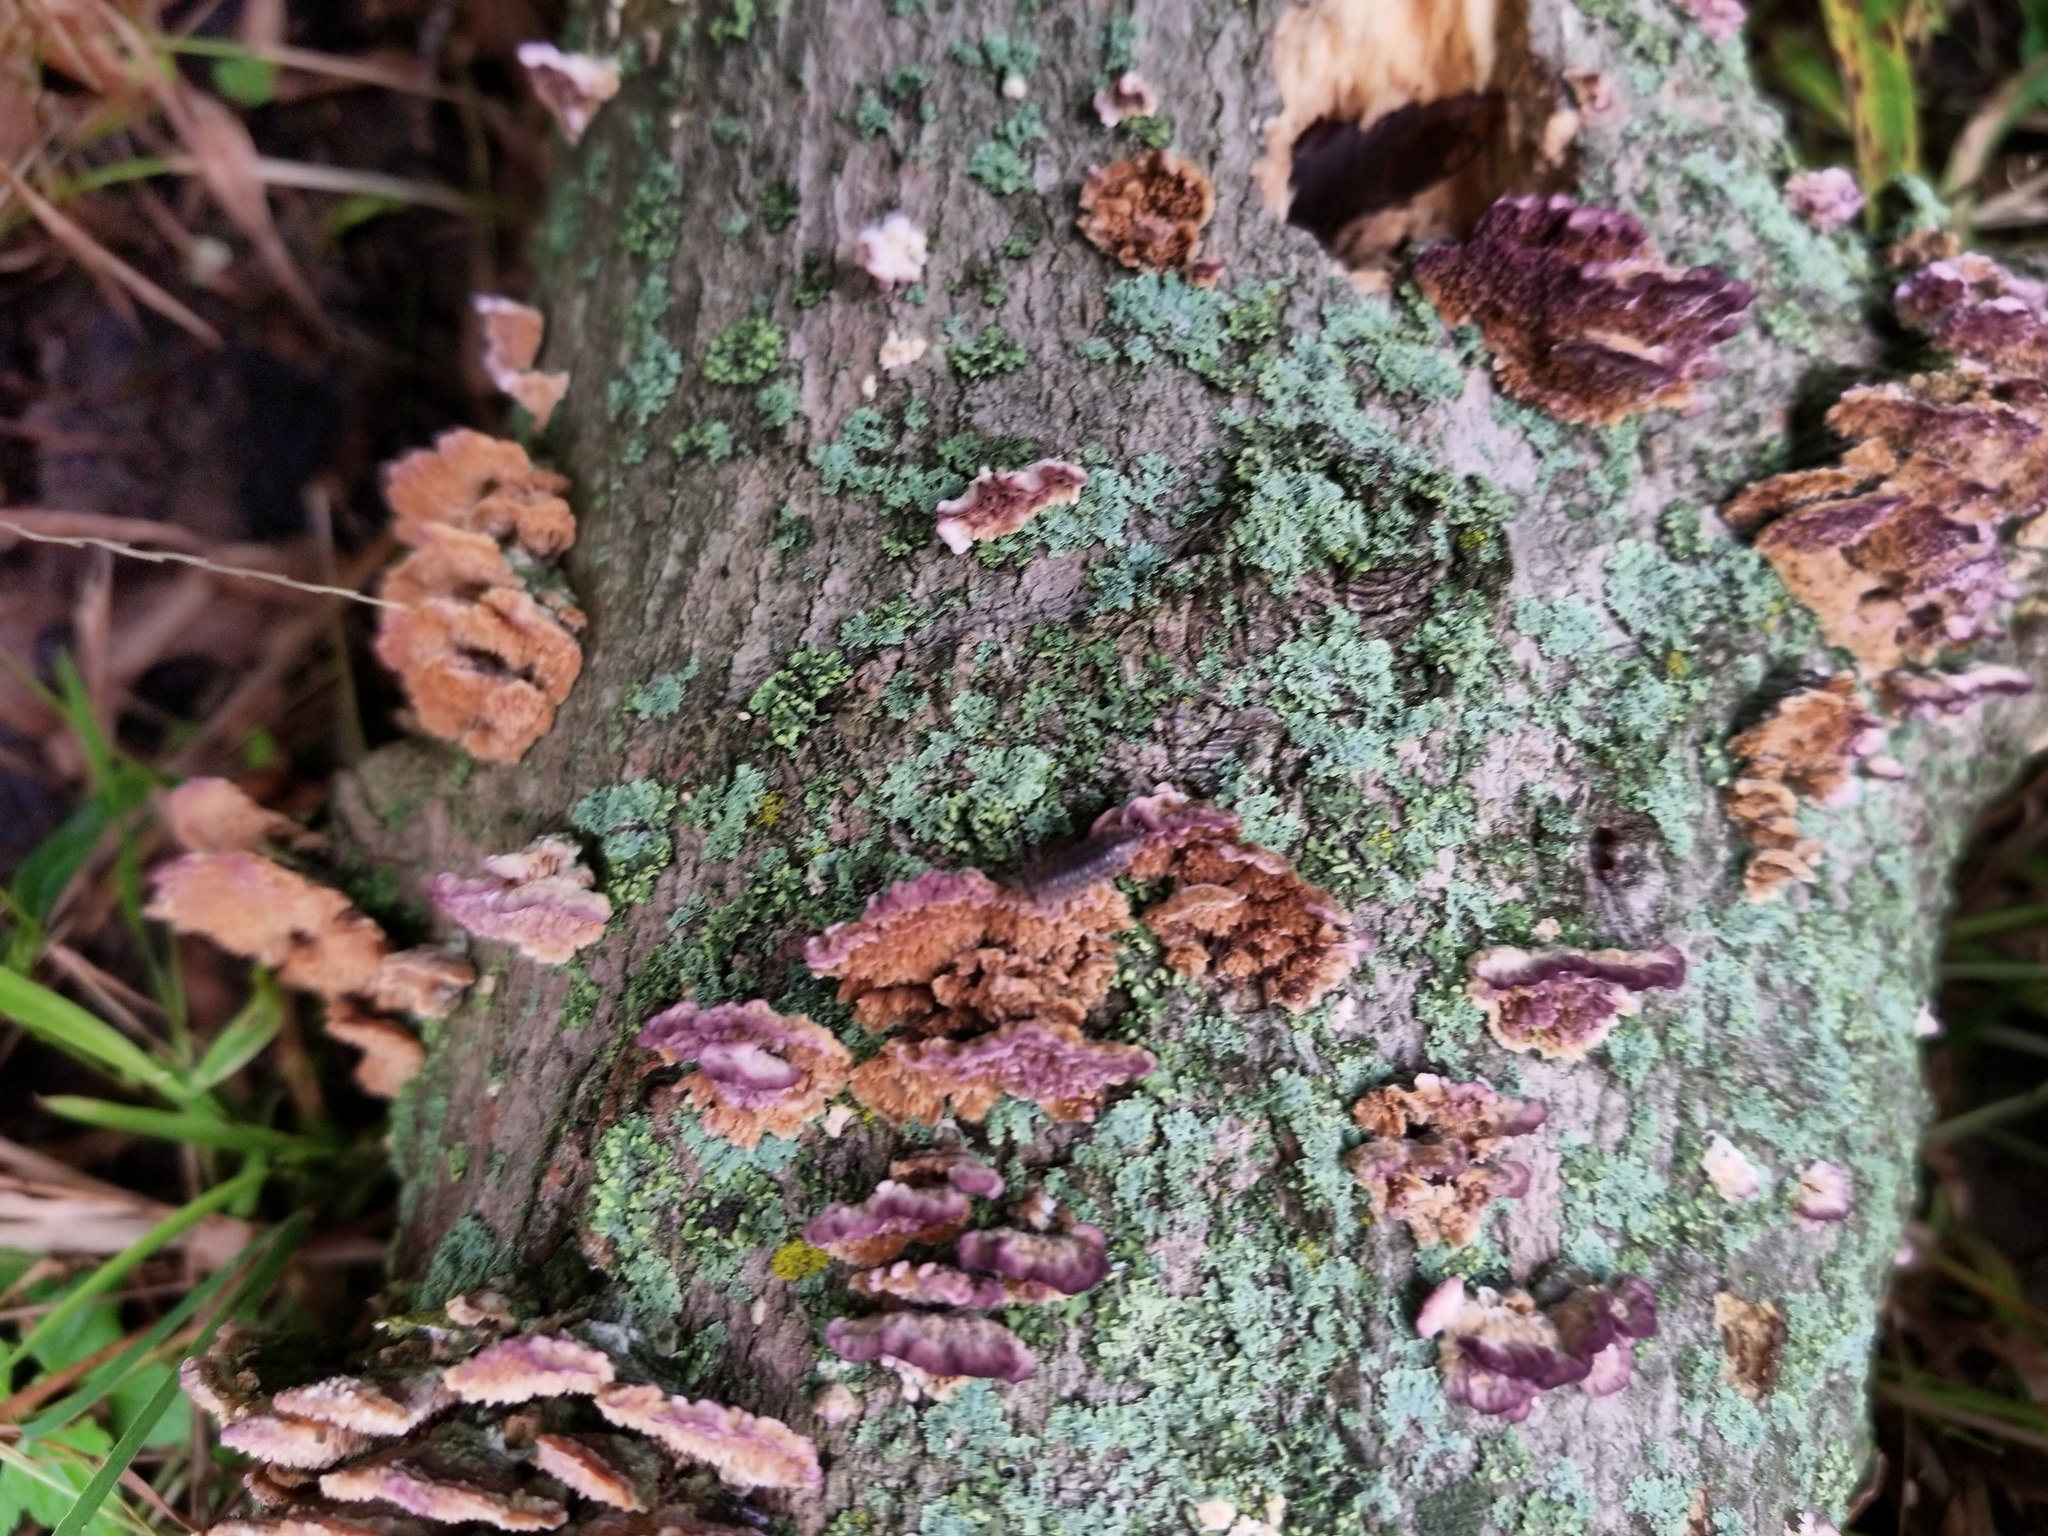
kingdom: Fungi
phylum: Basidiomycota
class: Agaricomycetes
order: Hymenochaetales
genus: Trichaptum
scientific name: Trichaptum biforme
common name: Violet-toothed polypore
